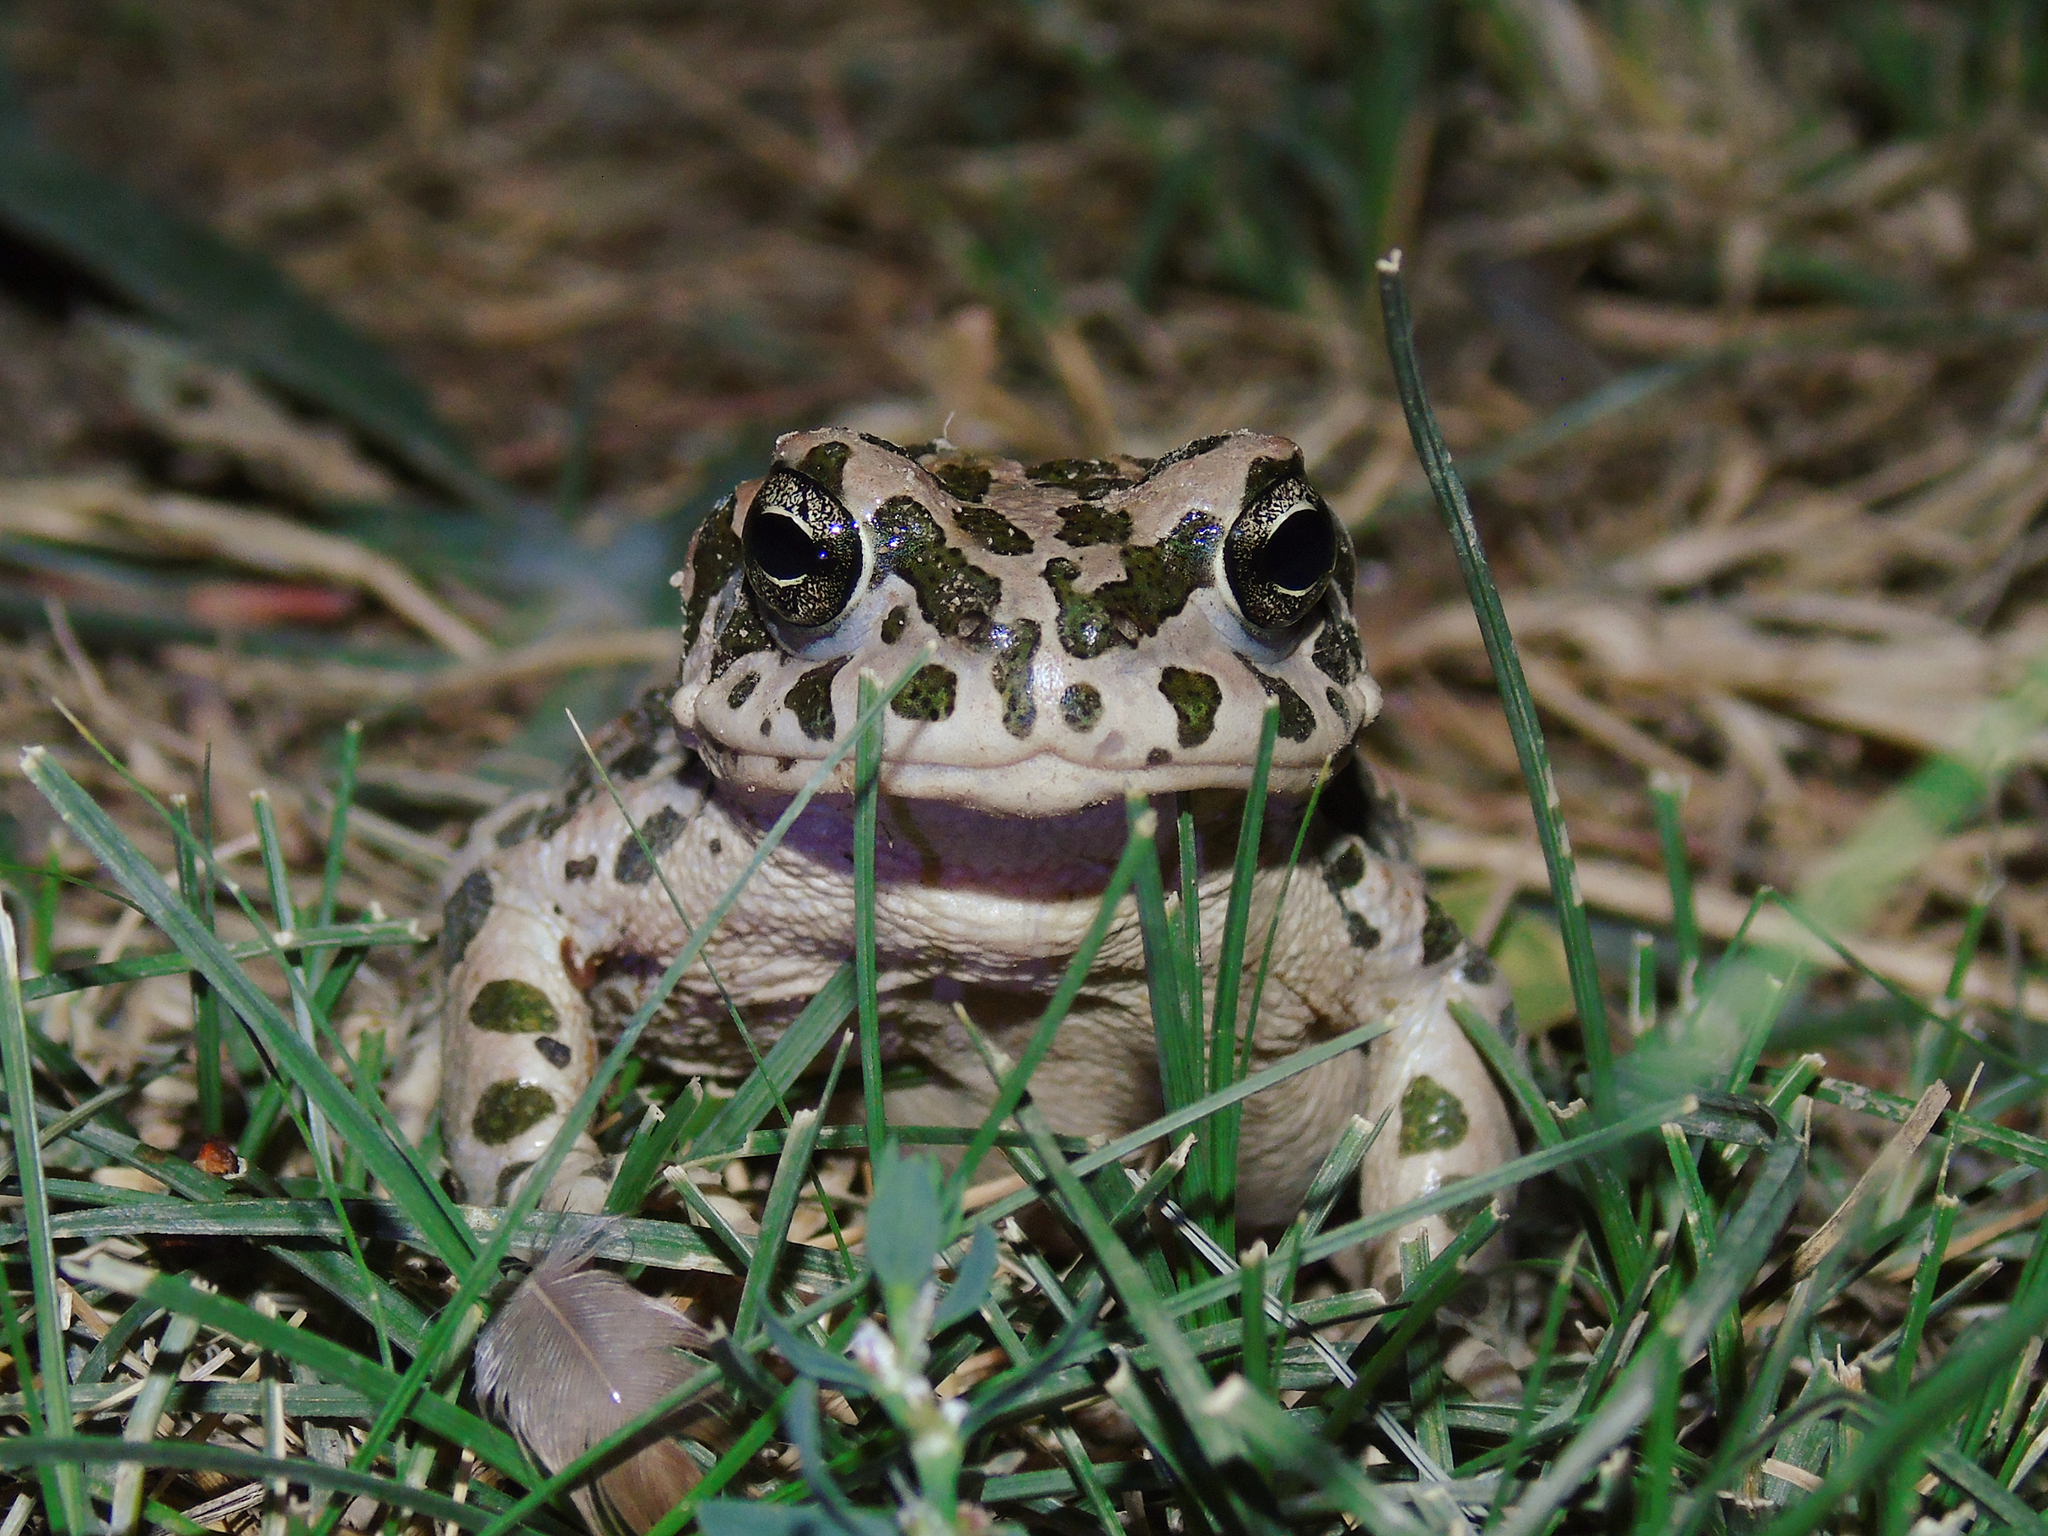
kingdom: Animalia
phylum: Chordata
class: Amphibia
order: Anura
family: Bufonidae
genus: Bufotes
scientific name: Bufotes pewzowi
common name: Xinjiang toad
